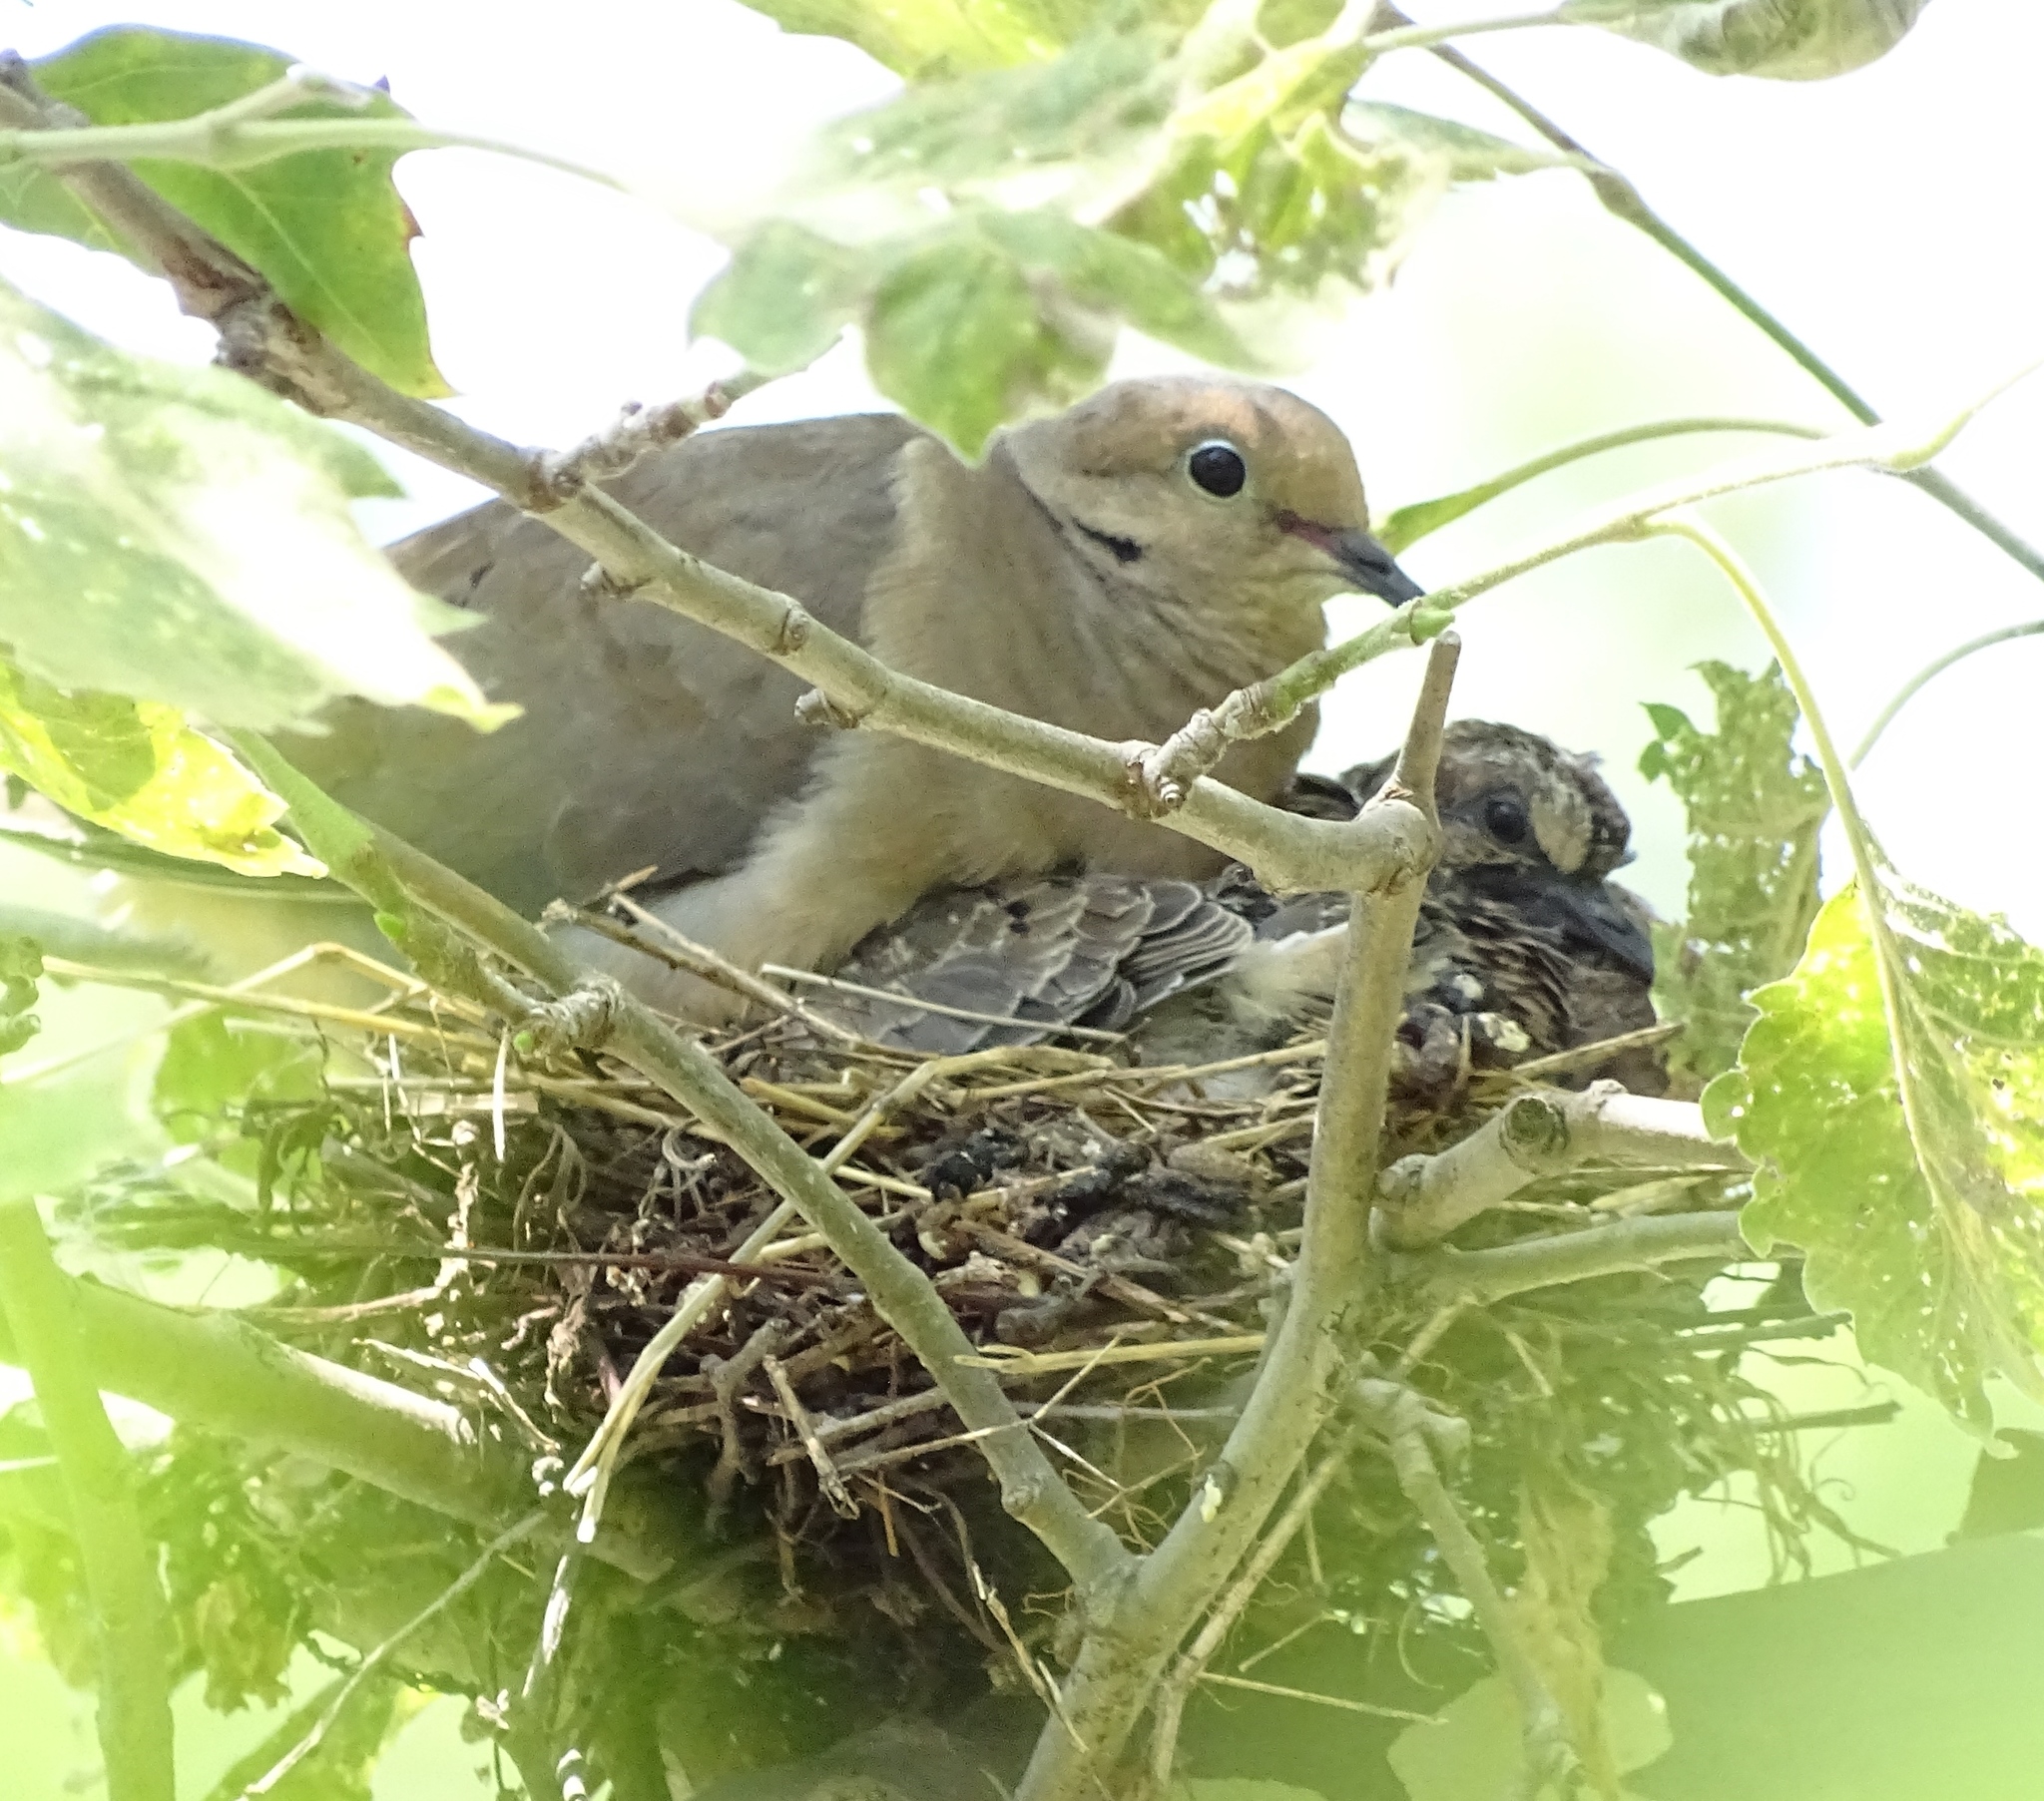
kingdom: Animalia
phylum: Chordata
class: Aves
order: Columbiformes
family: Columbidae
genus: Zenaida
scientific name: Zenaida macroura
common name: Mourning dove
